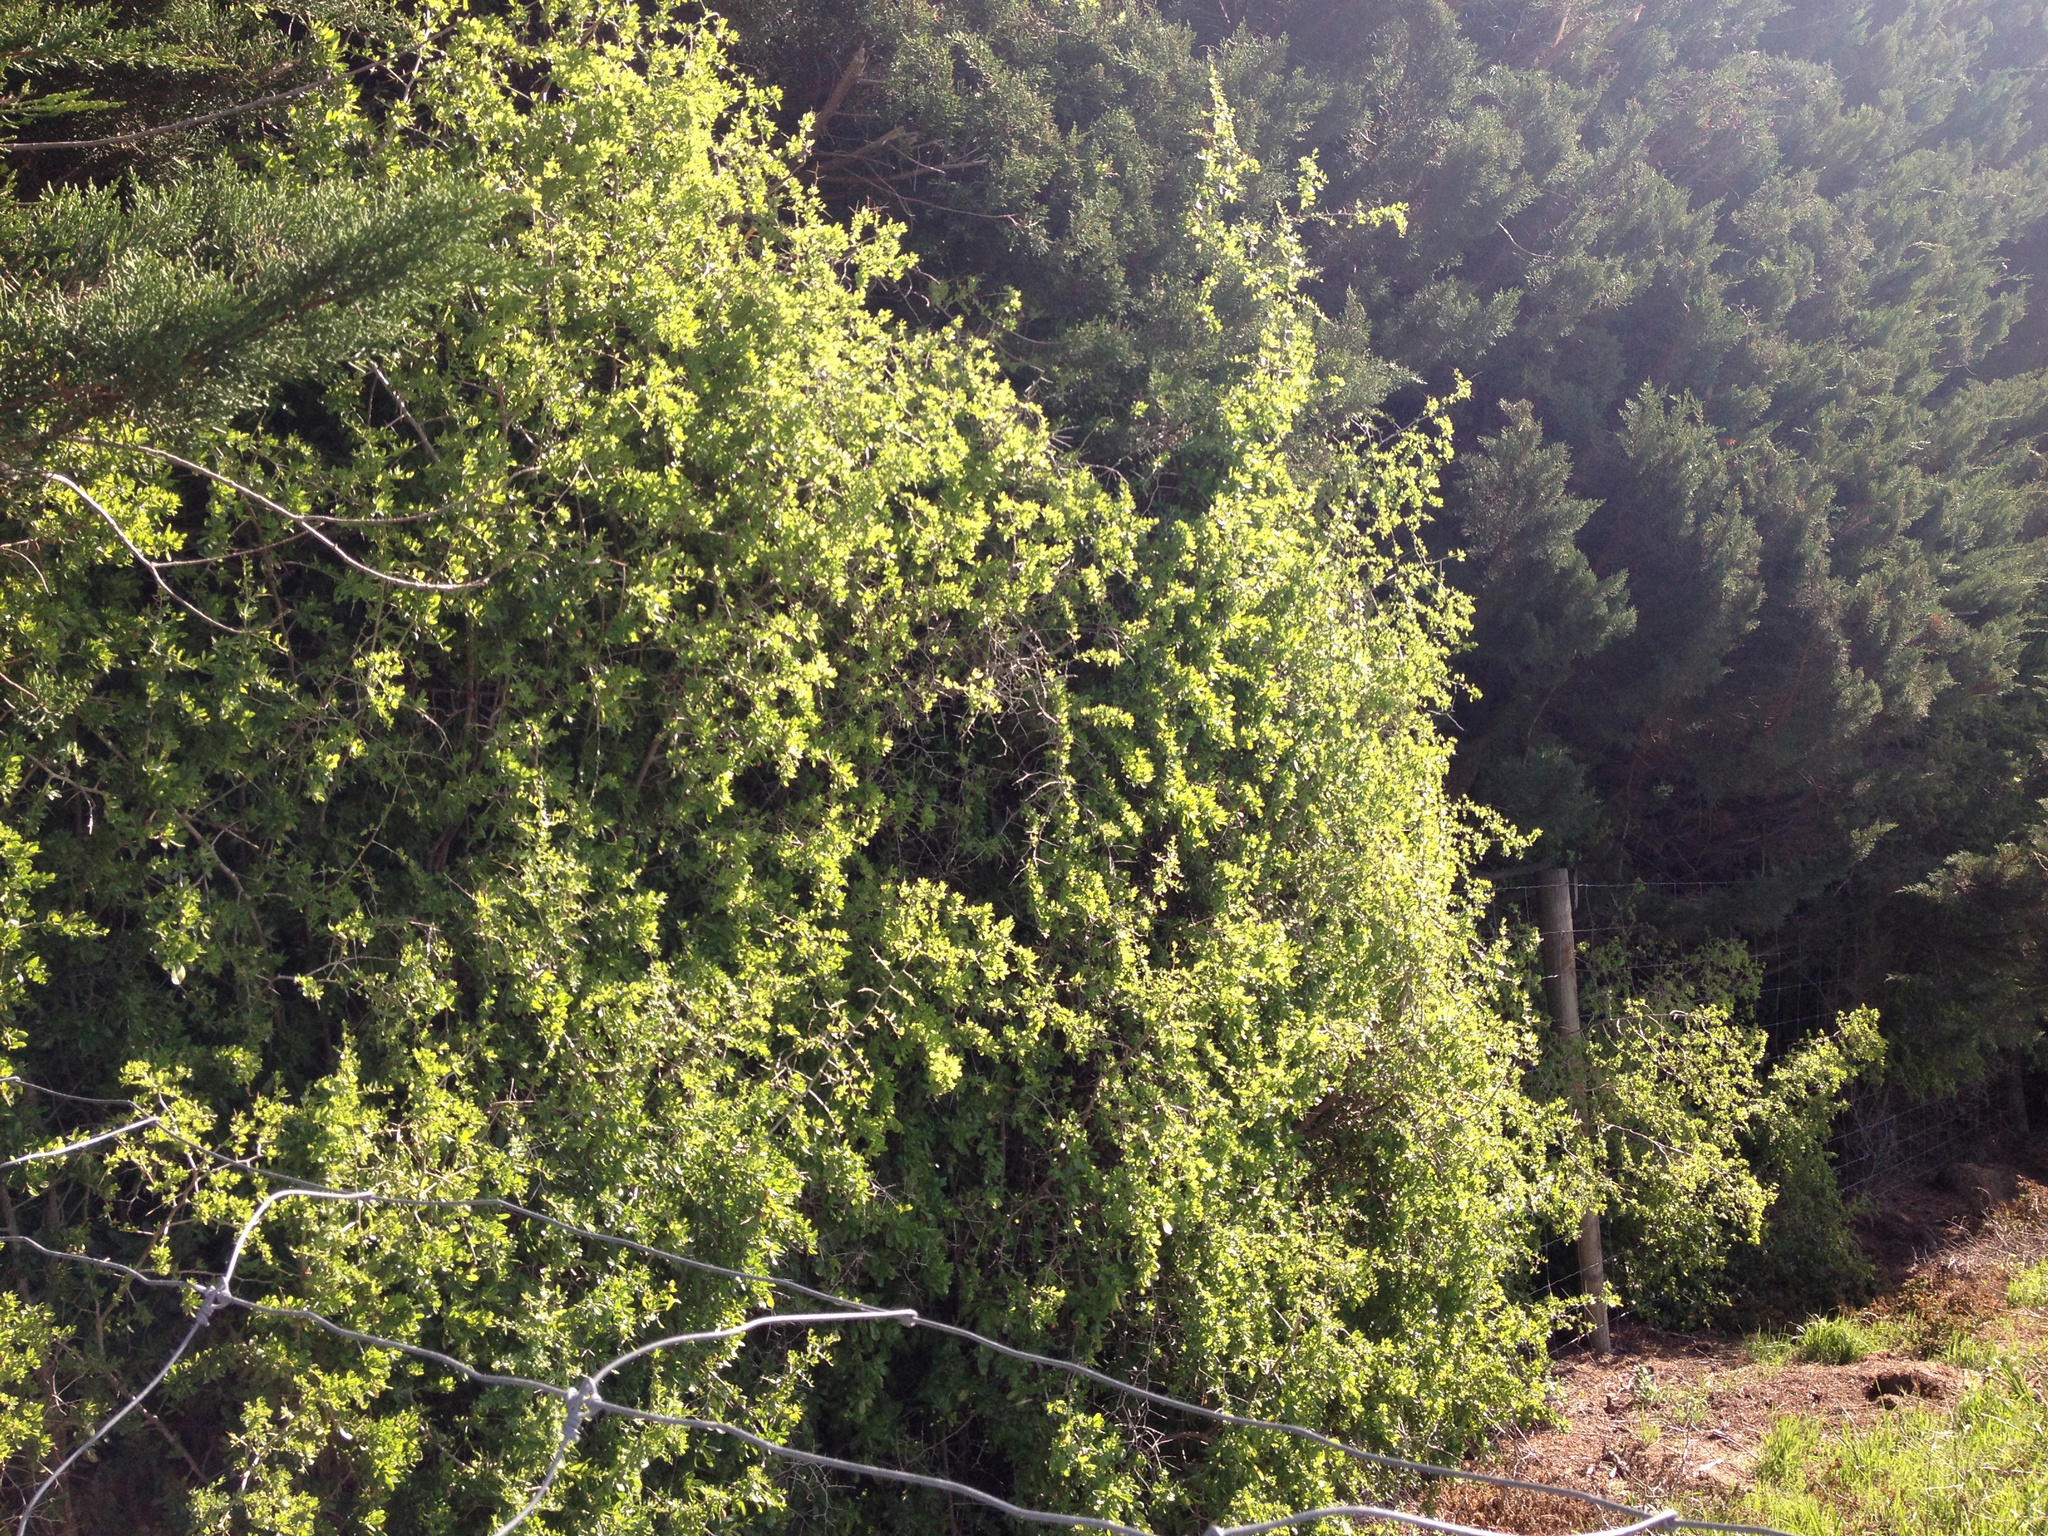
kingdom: Plantae
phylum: Tracheophyta
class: Magnoliopsida
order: Solanales
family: Solanaceae
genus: Lycium
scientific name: Lycium ferocissimum
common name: African boxthorn
